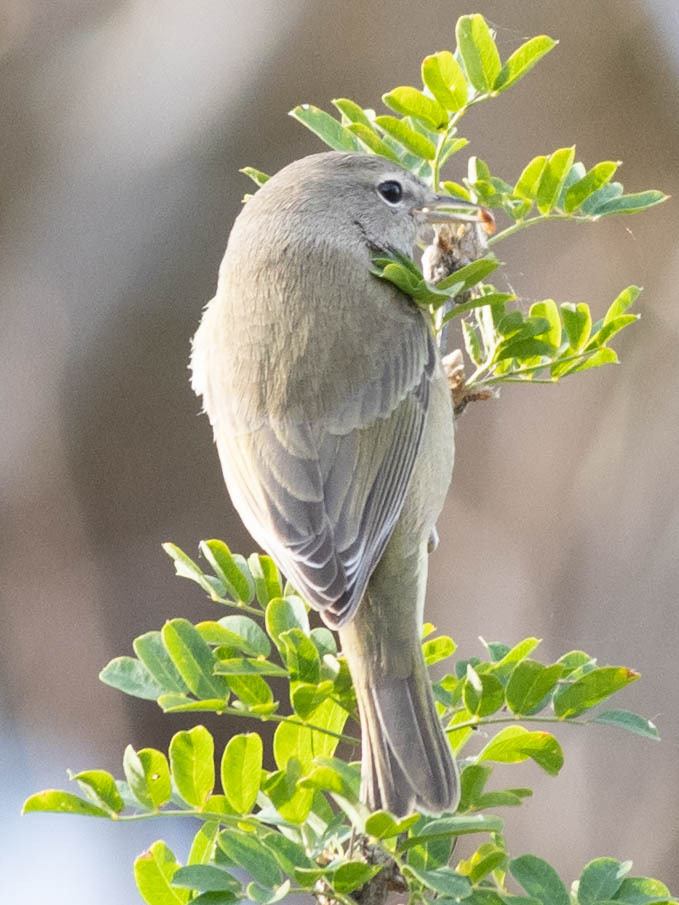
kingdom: Animalia
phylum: Chordata
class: Aves
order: Passeriformes
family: Parulidae
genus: Leiothlypis
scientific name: Leiothlypis celata
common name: Orange-crowned warbler
